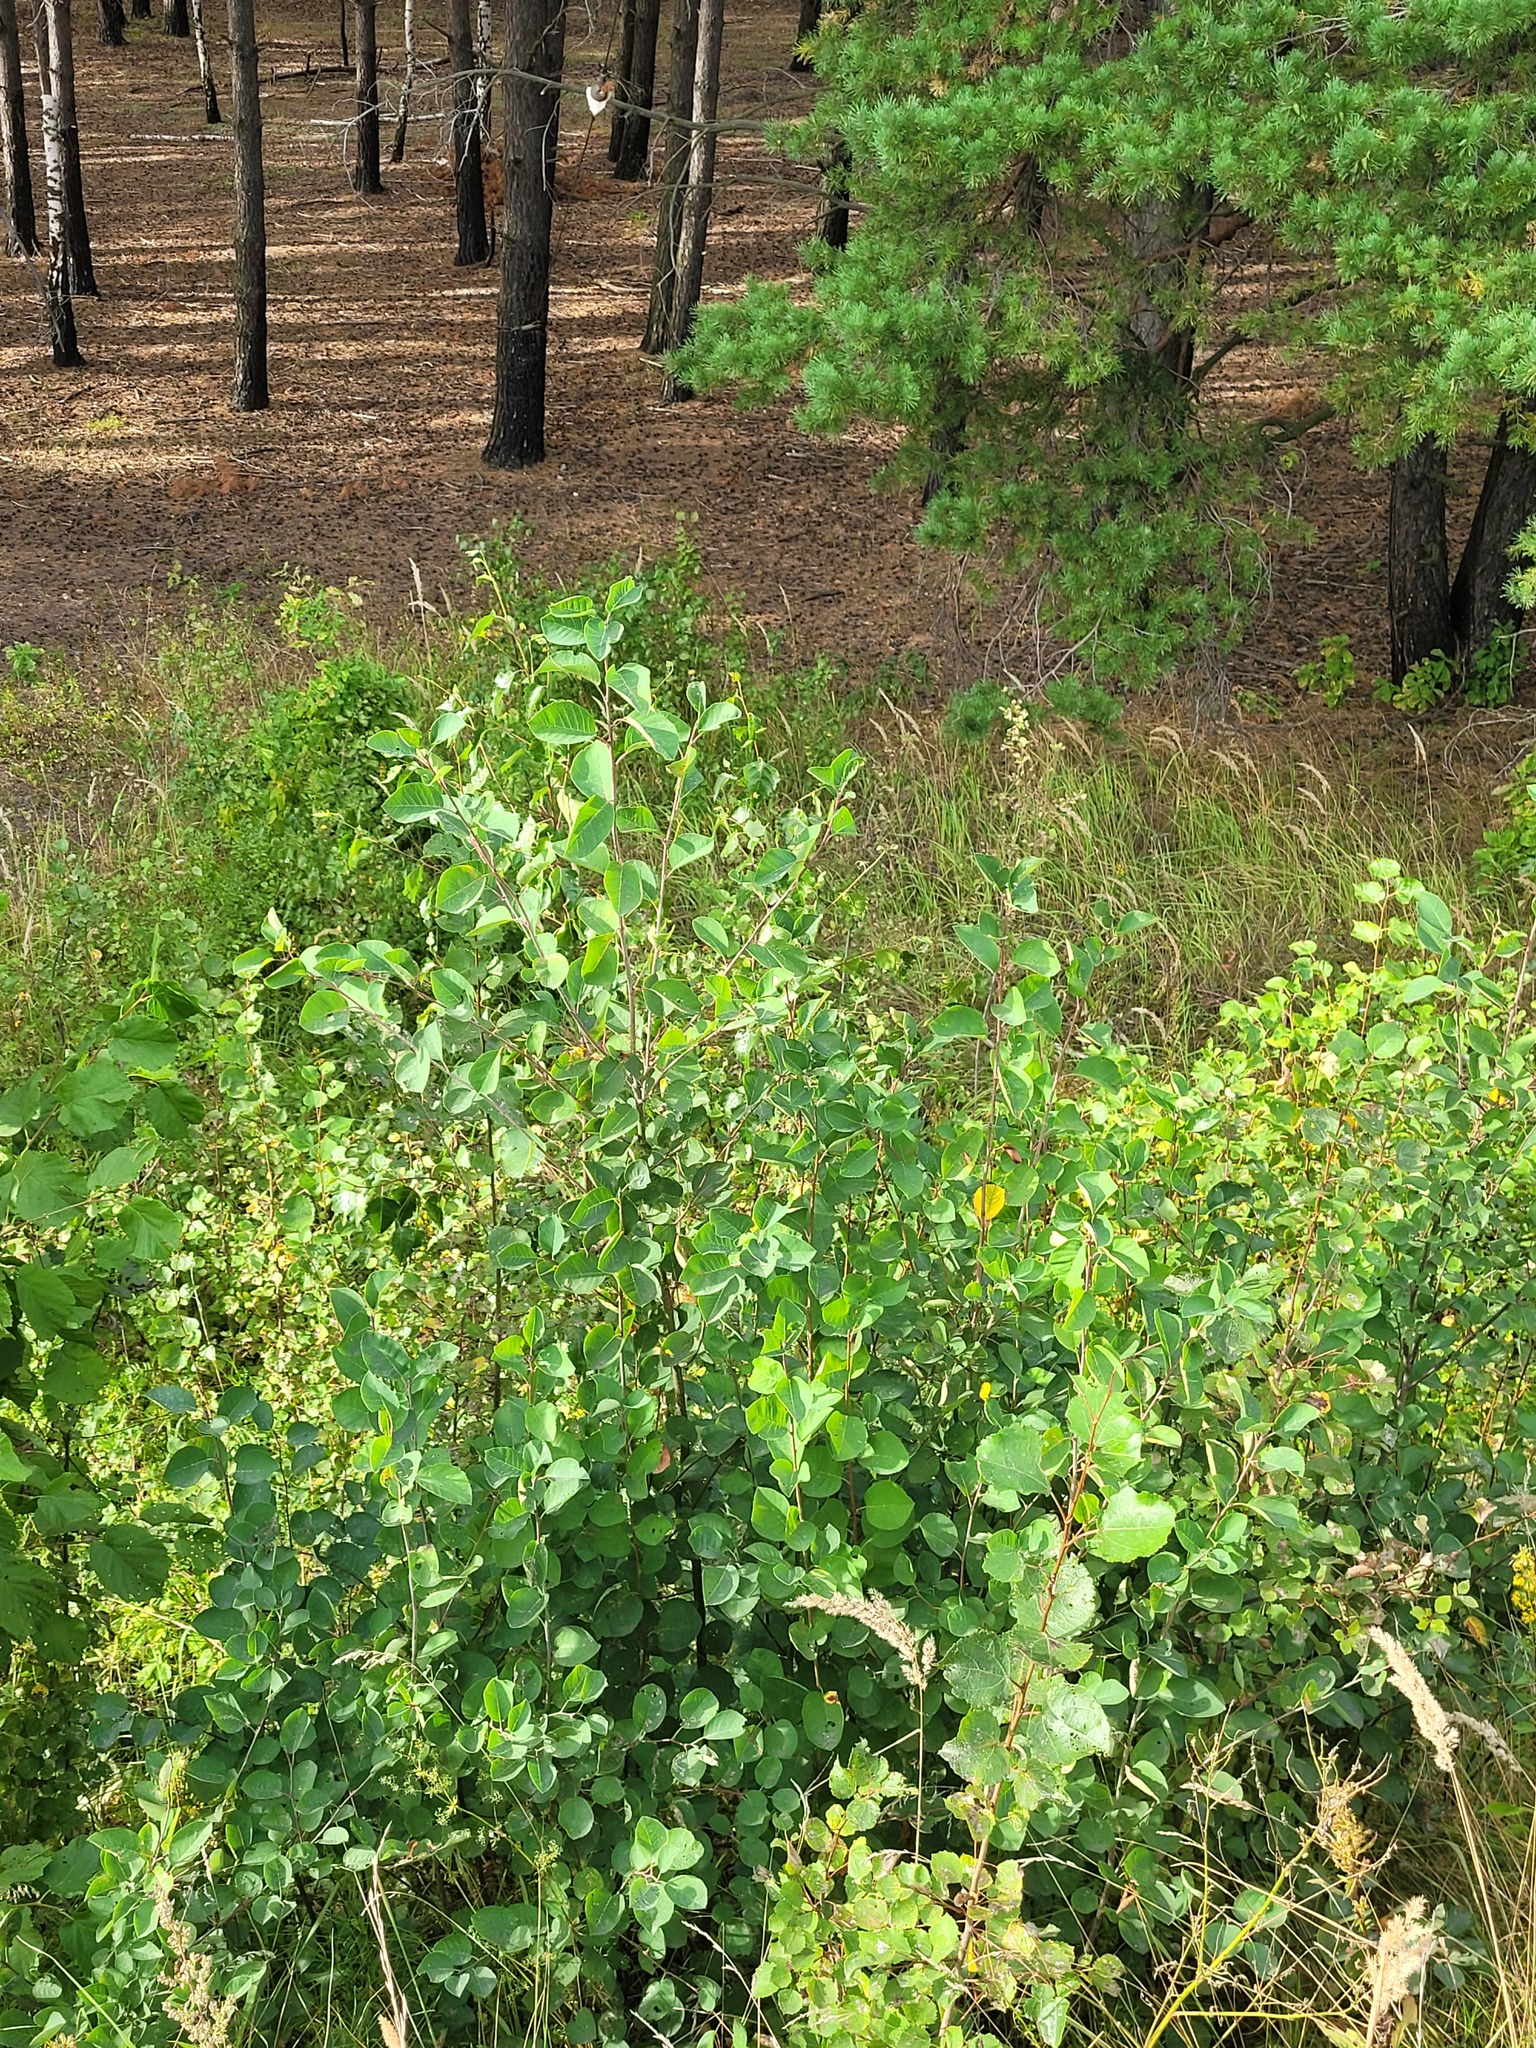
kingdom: Plantae
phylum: Tracheophyta
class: Magnoliopsida
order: Rosales
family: Rosaceae
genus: Amelanchier
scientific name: Amelanchier
